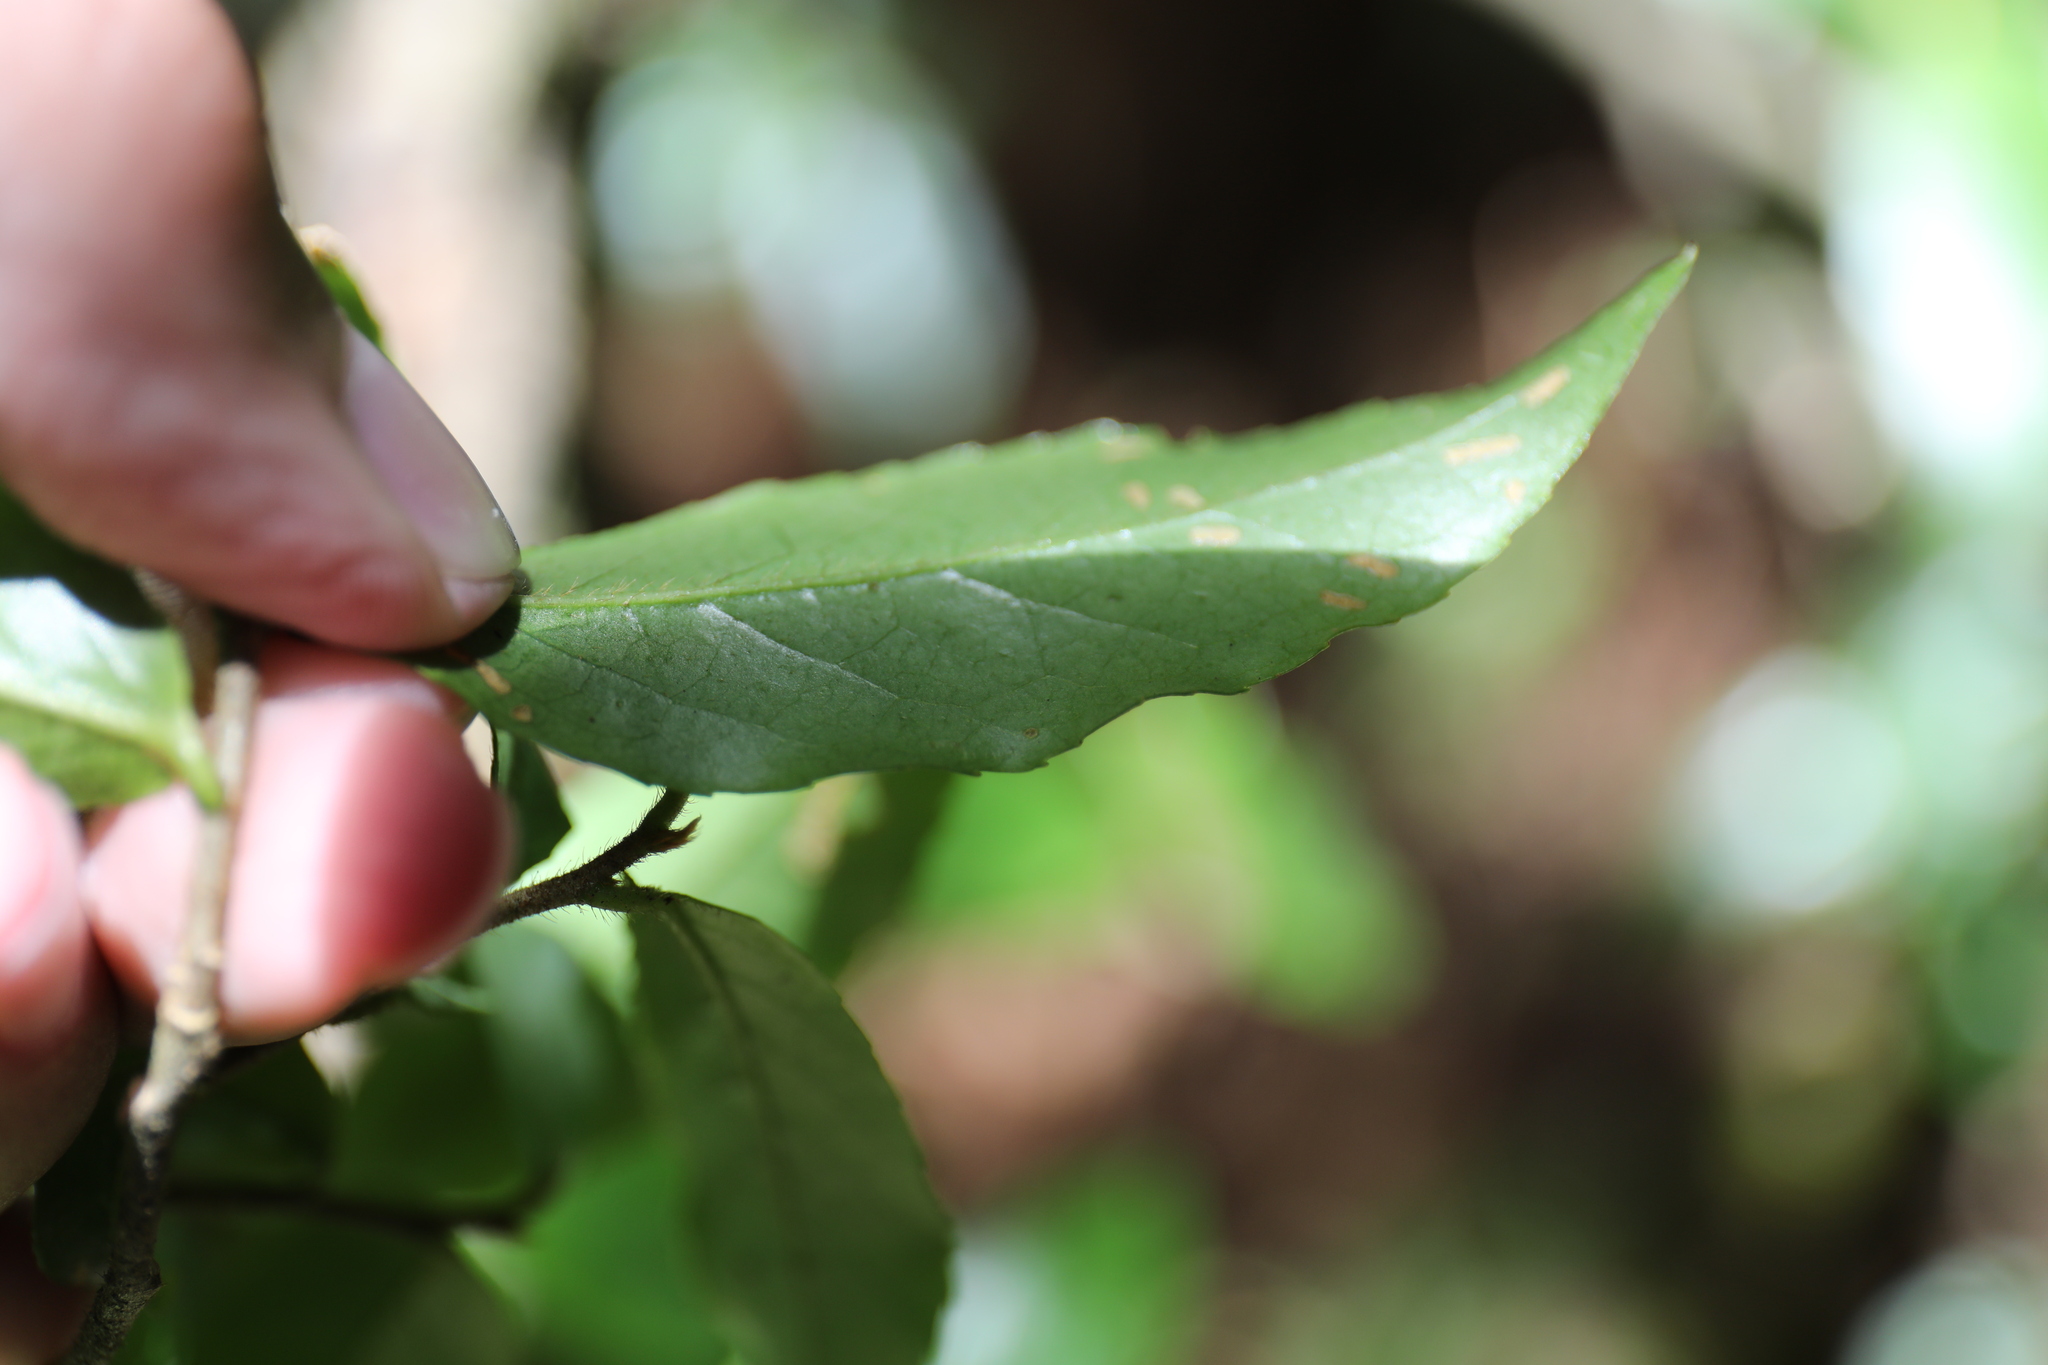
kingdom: Plantae
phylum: Tracheophyta
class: Magnoliopsida
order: Ericales
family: Symplocaceae
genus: Symplocos
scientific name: Symplocos lancifolia
